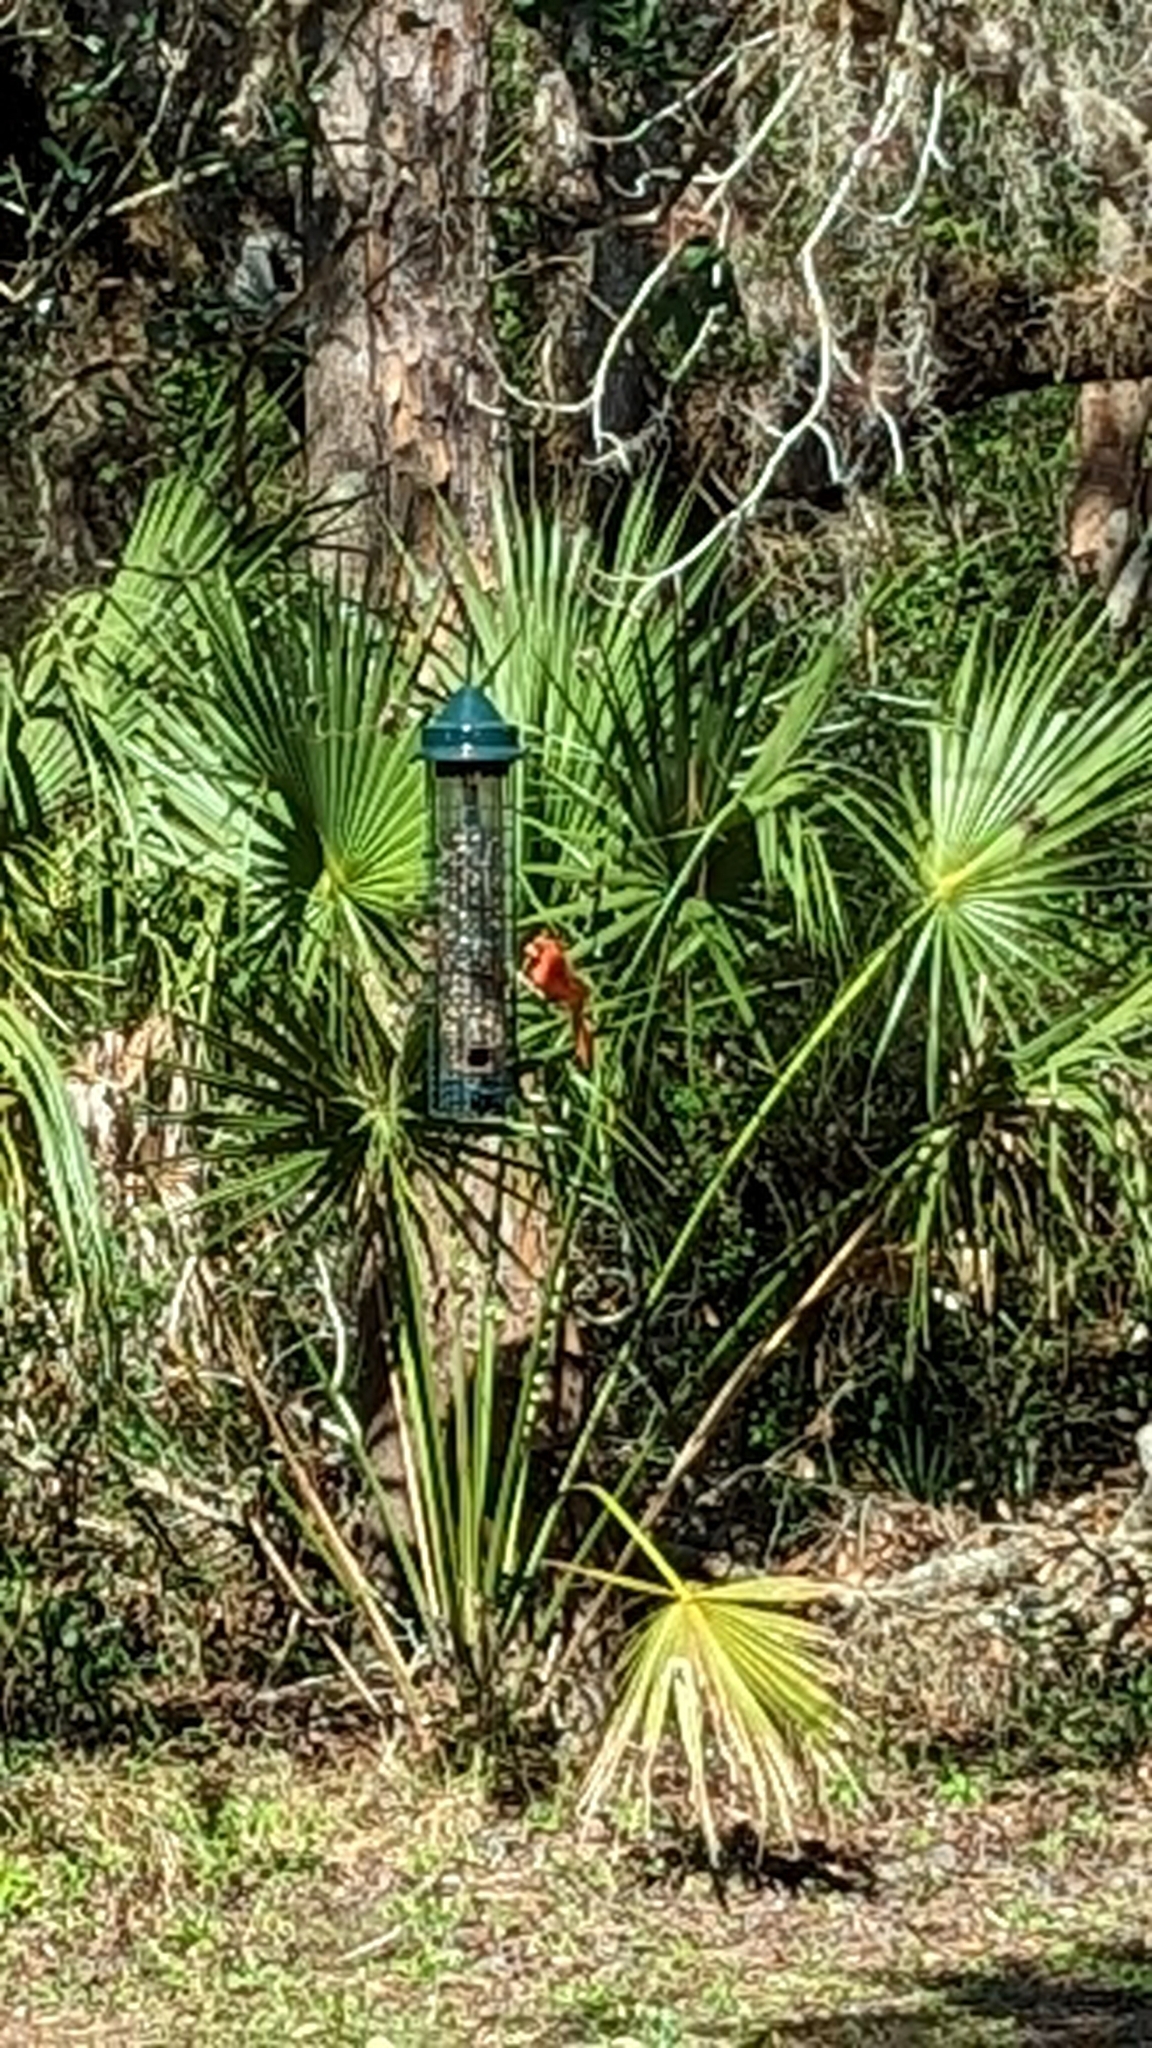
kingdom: Animalia
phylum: Chordata
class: Aves
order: Passeriformes
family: Cardinalidae
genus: Cardinalis
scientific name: Cardinalis cardinalis
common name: Northern cardinal
